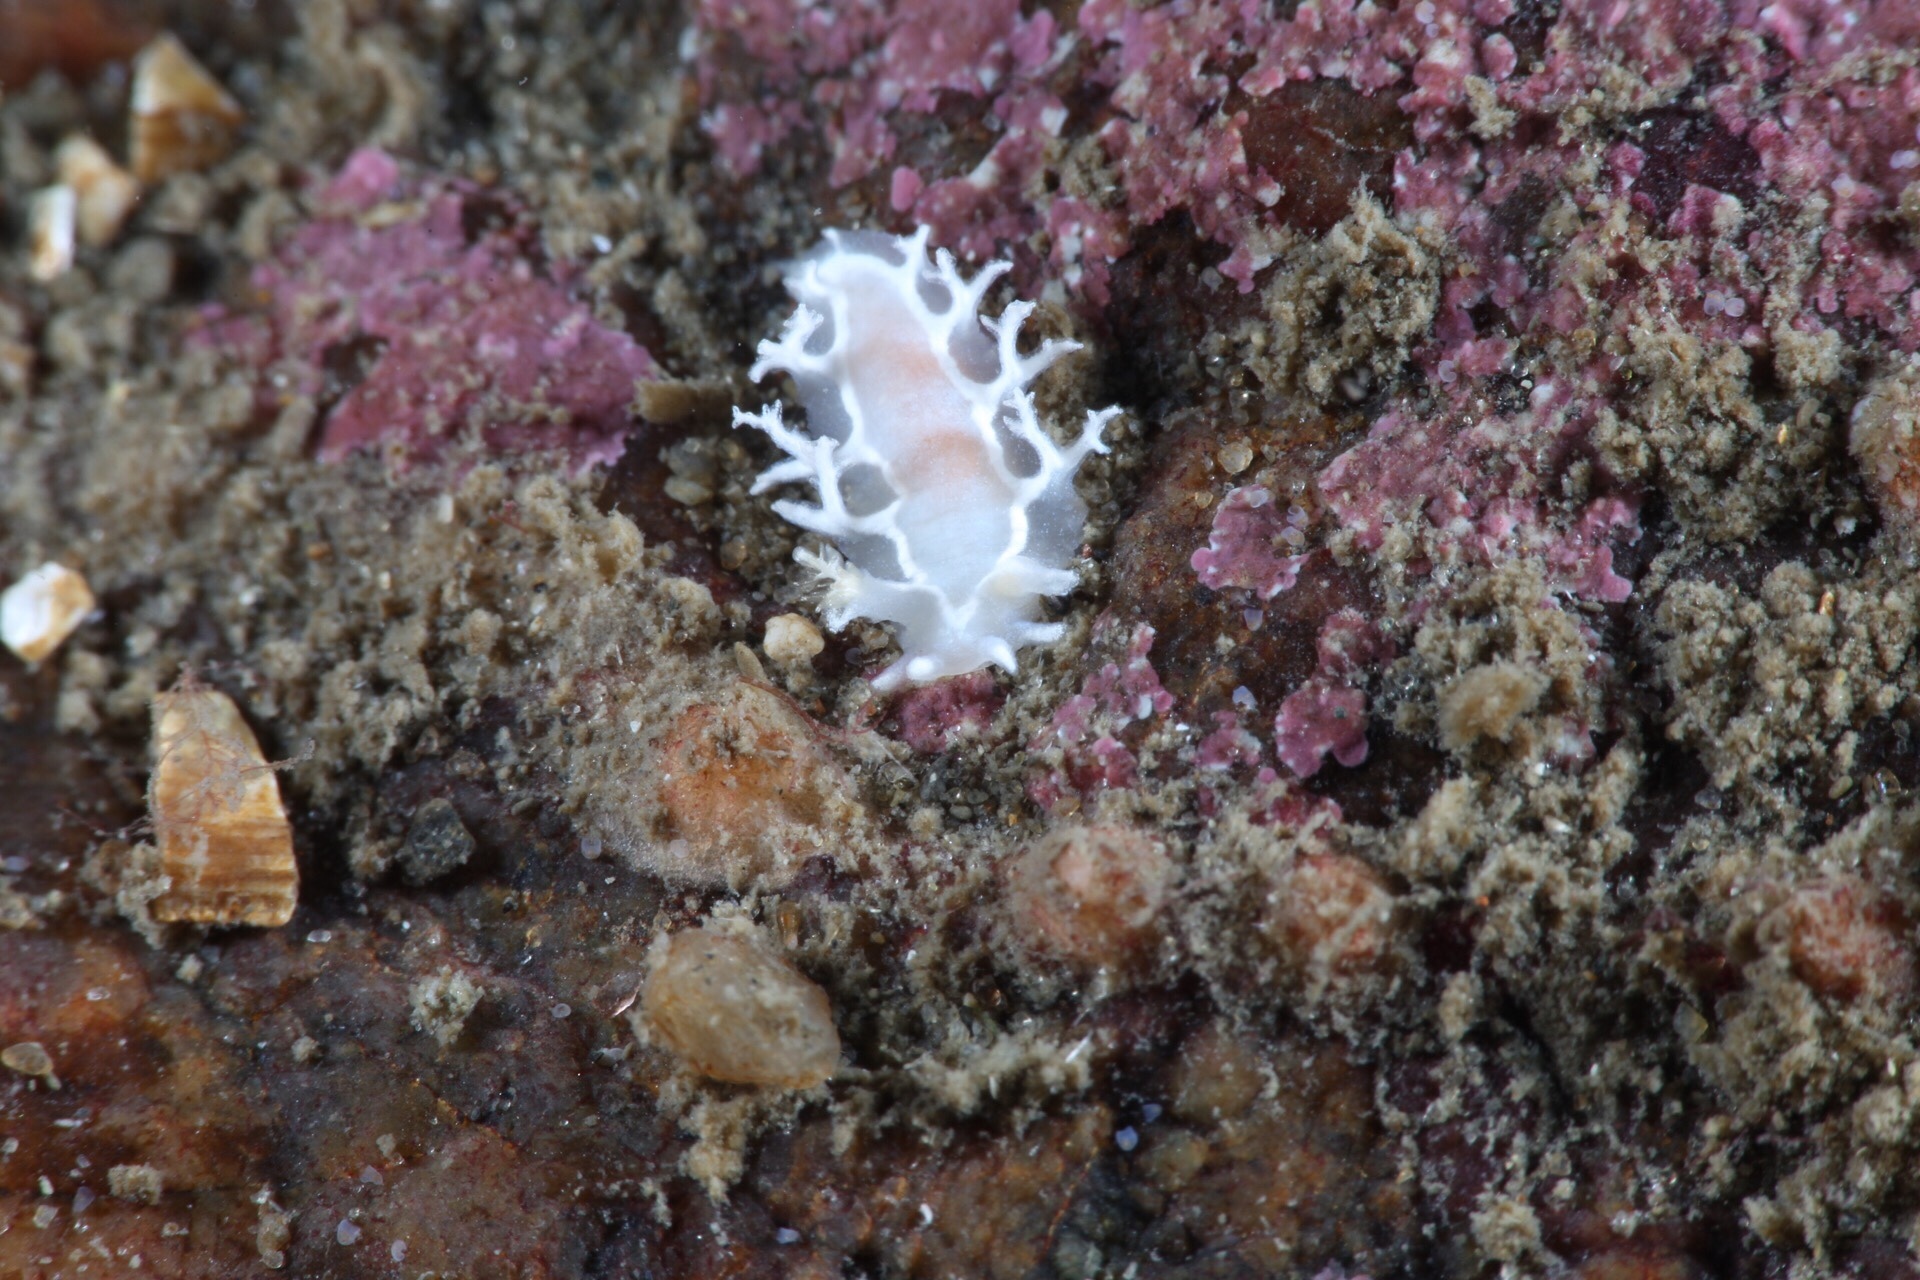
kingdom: Animalia
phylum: Mollusca
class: Gastropoda
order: Nudibranchia
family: Tritoniidae
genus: Duvaucelia
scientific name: Duvaucelia lineata
